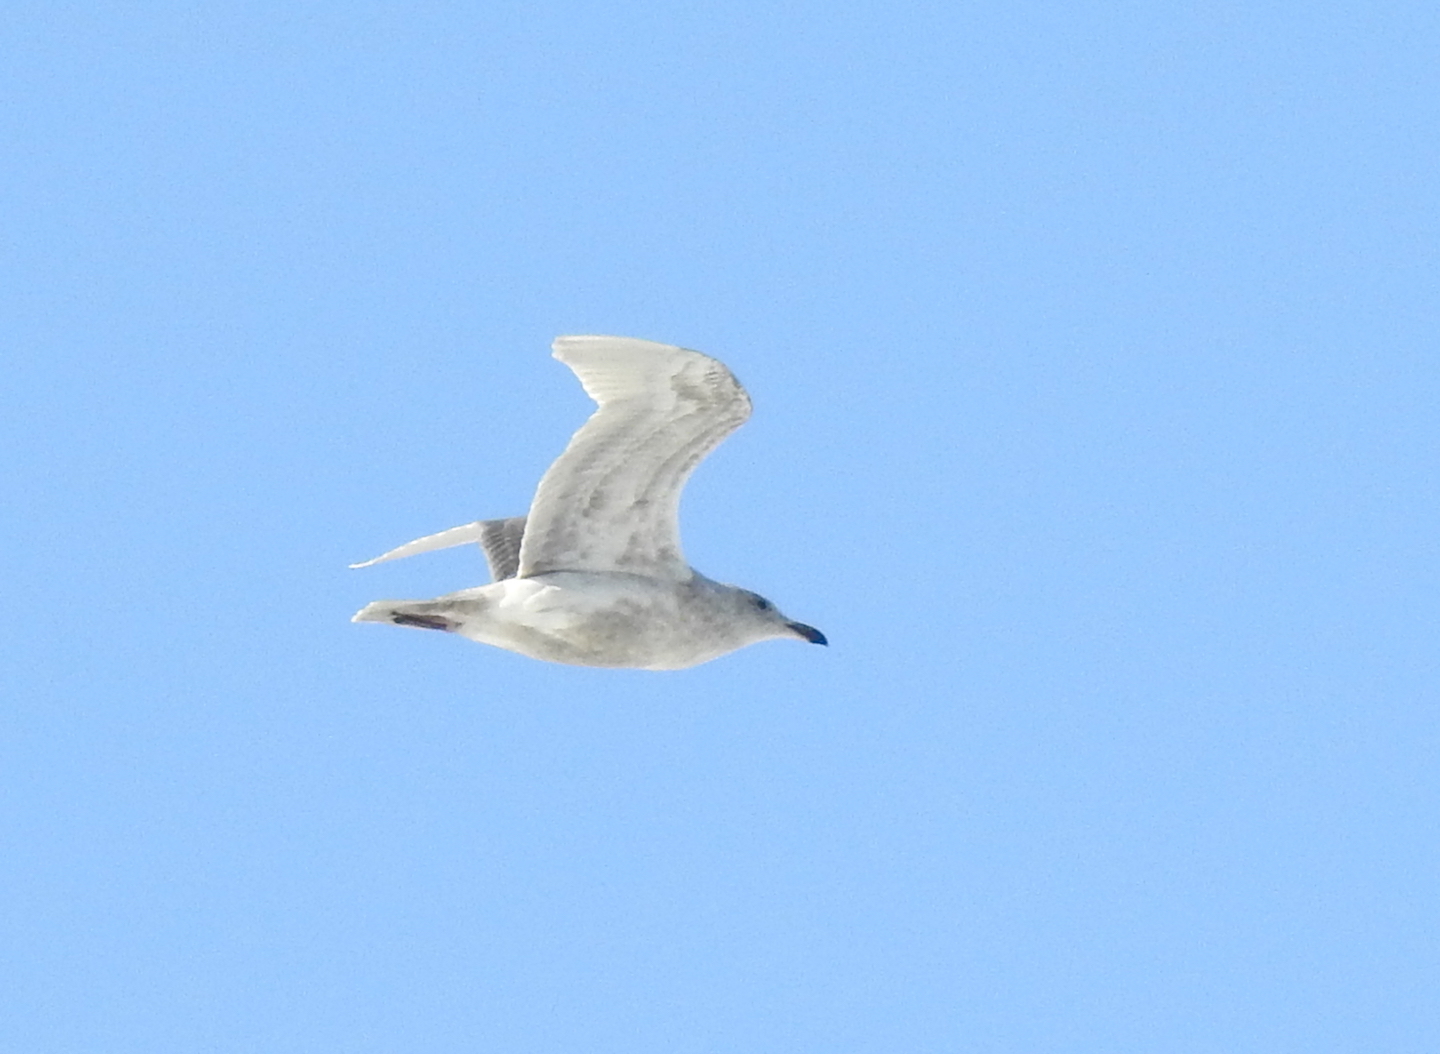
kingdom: Animalia
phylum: Chordata
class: Aves
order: Charadriiformes
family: Laridae
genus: Larus
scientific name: Larus glaucescens
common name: Glaucous-winged gull
